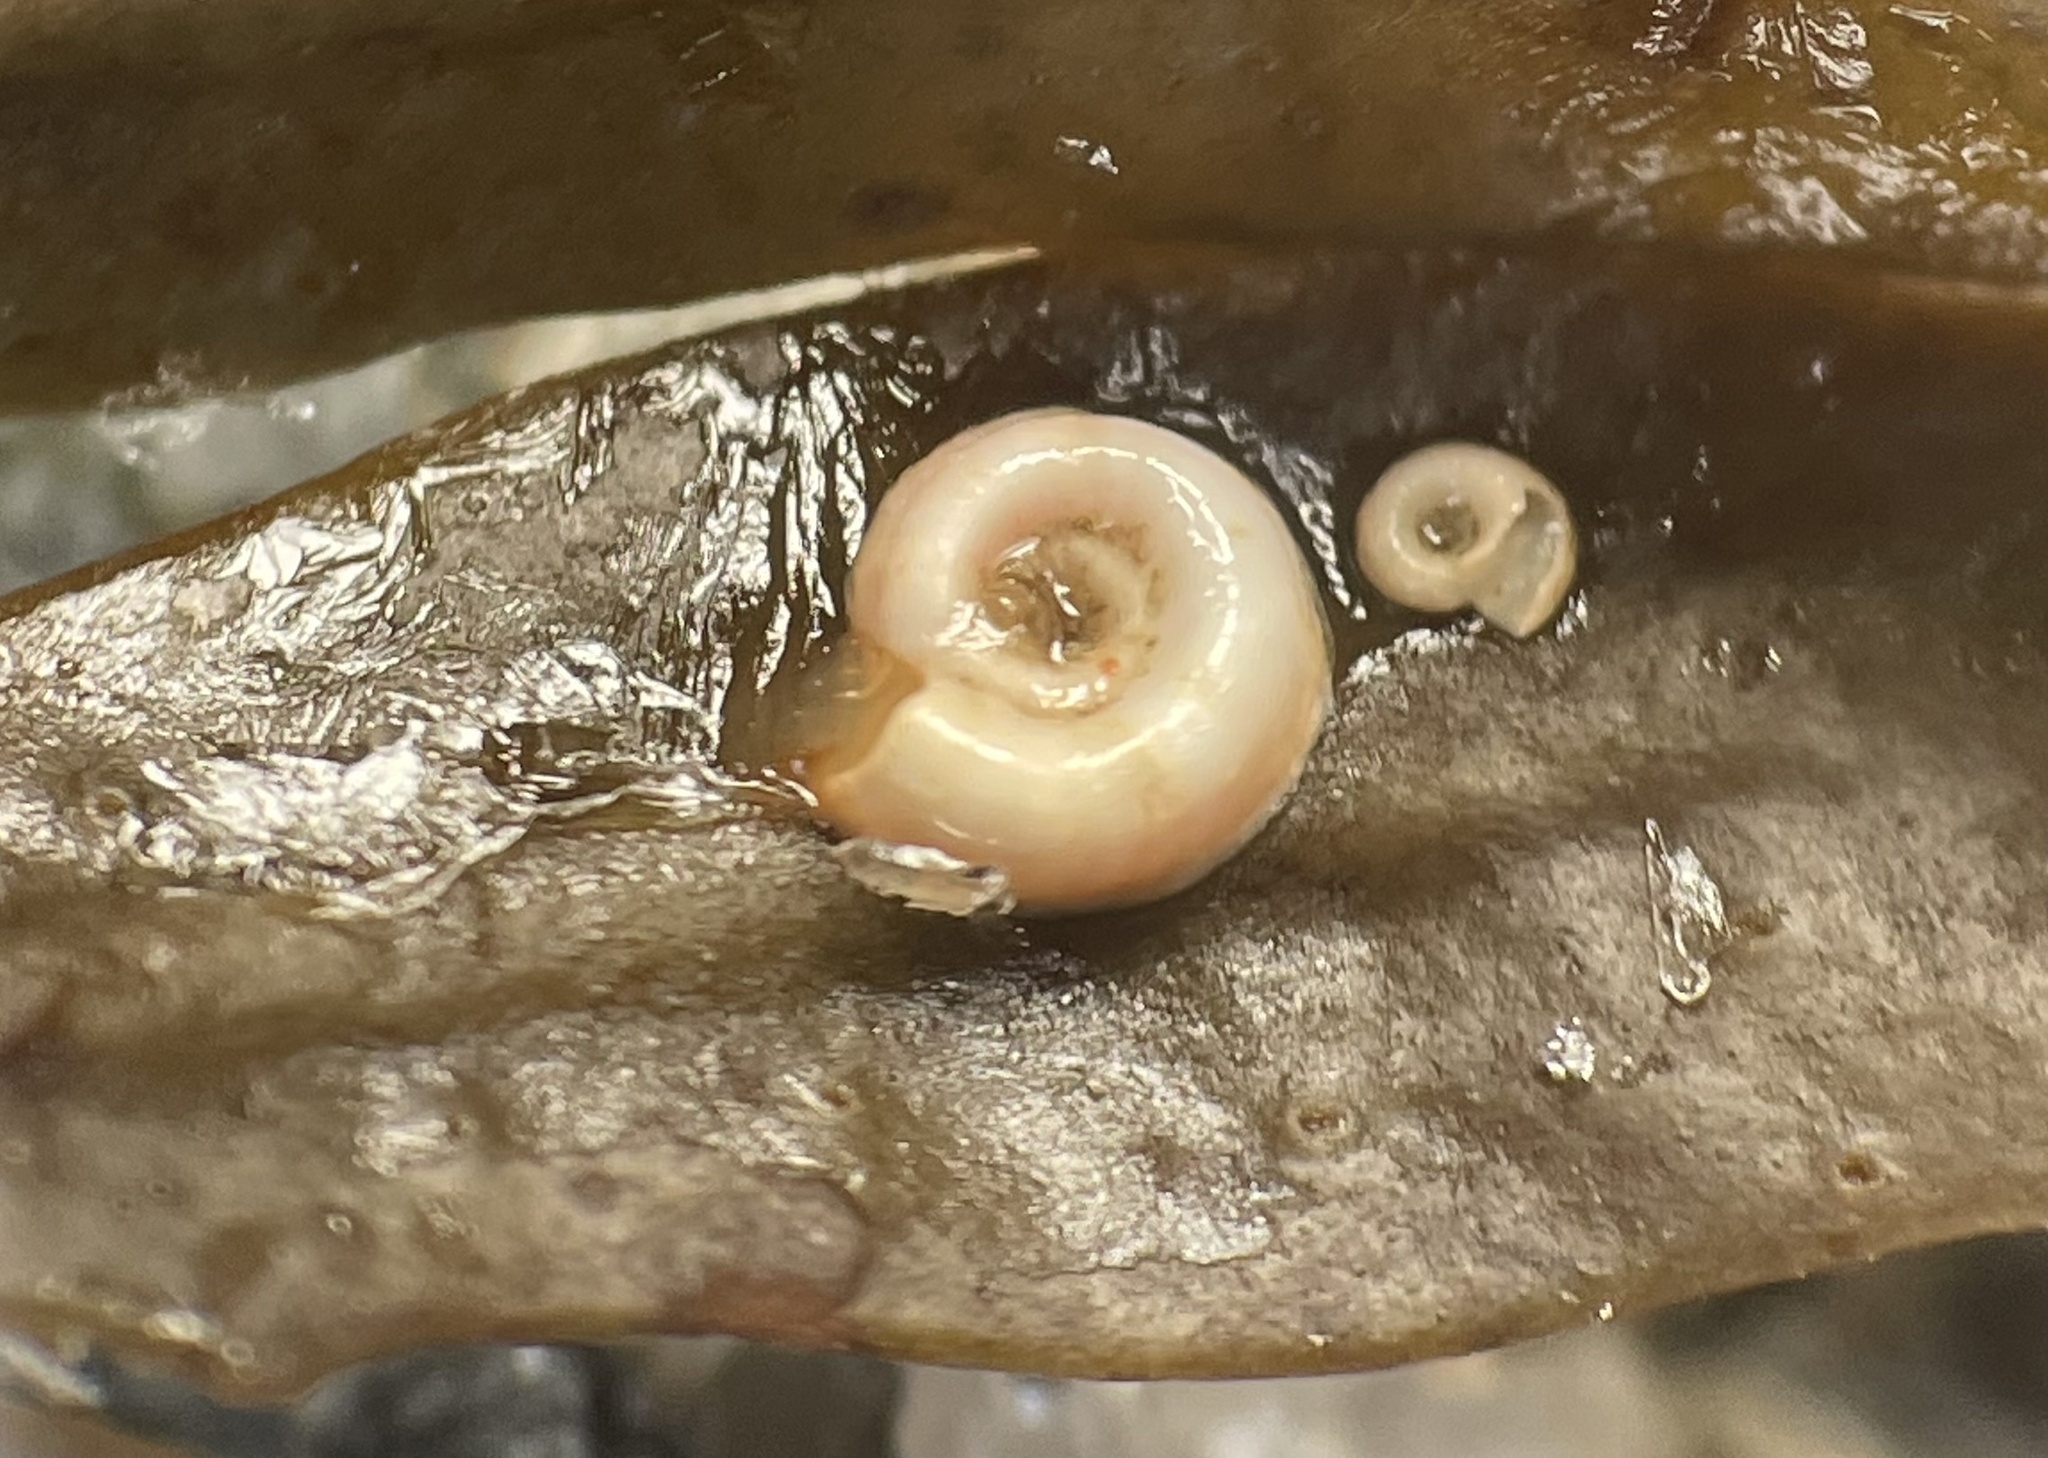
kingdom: Animalia
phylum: Annelida
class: Polychaeta
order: Sabellida
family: Spirorbidae
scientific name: Spirorbidae
